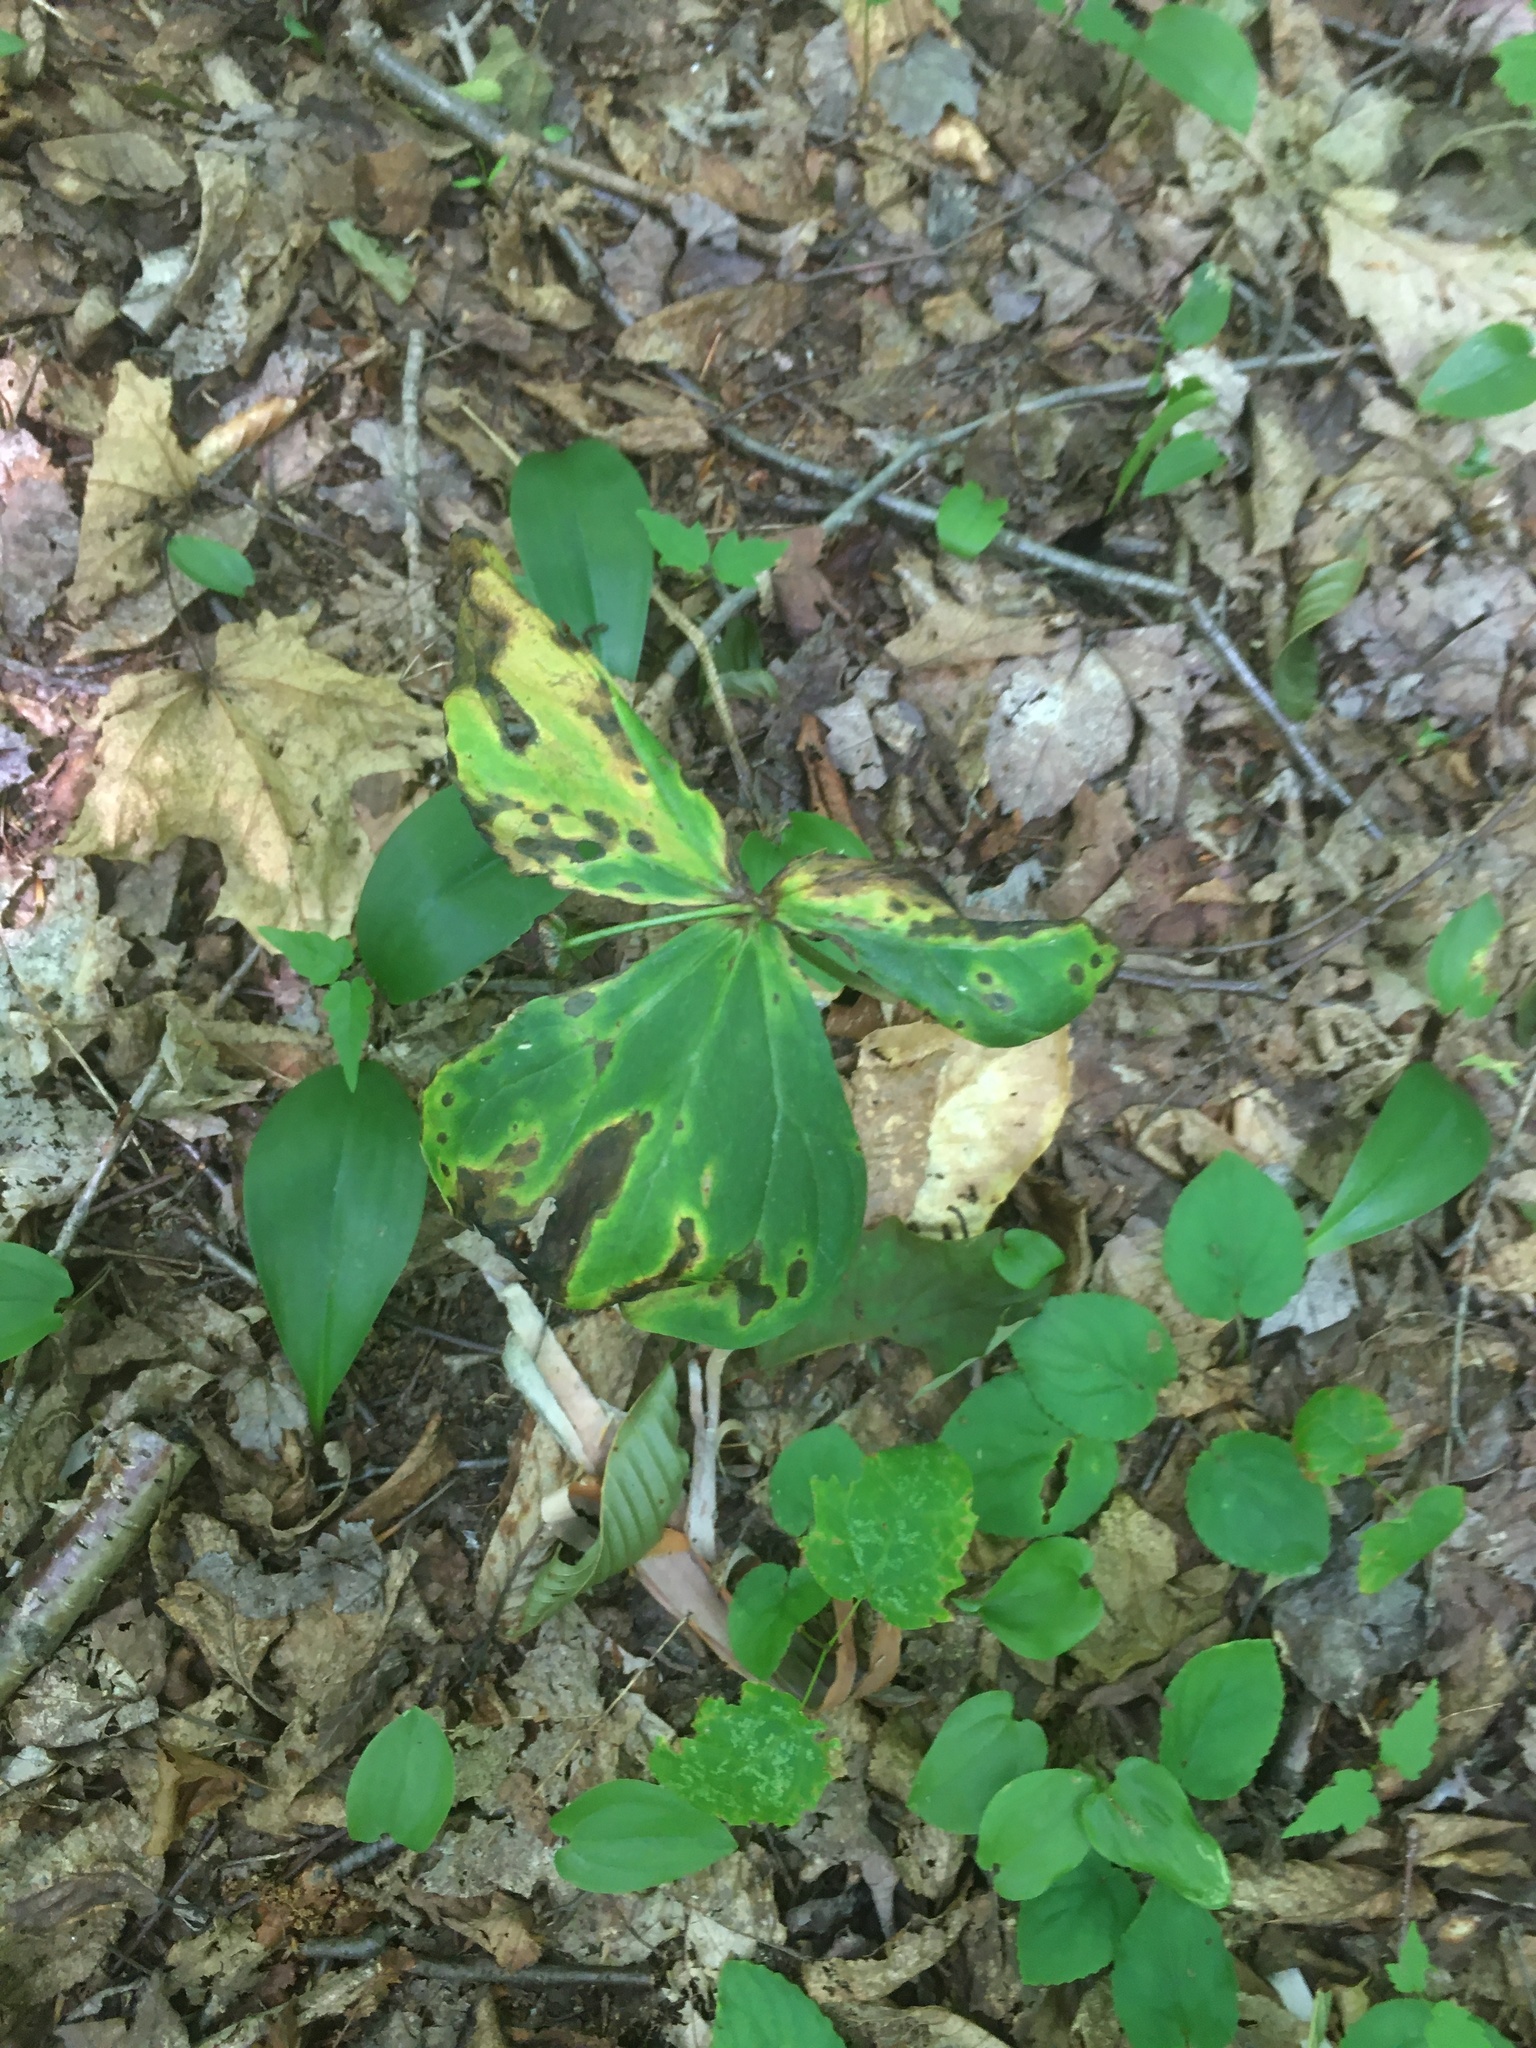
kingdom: Plantae
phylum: Tracheophyta
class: Liliopsida
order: Liliales
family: Melanthiaceae
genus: Trillium
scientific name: Trillium erectum
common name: Purple trillium
